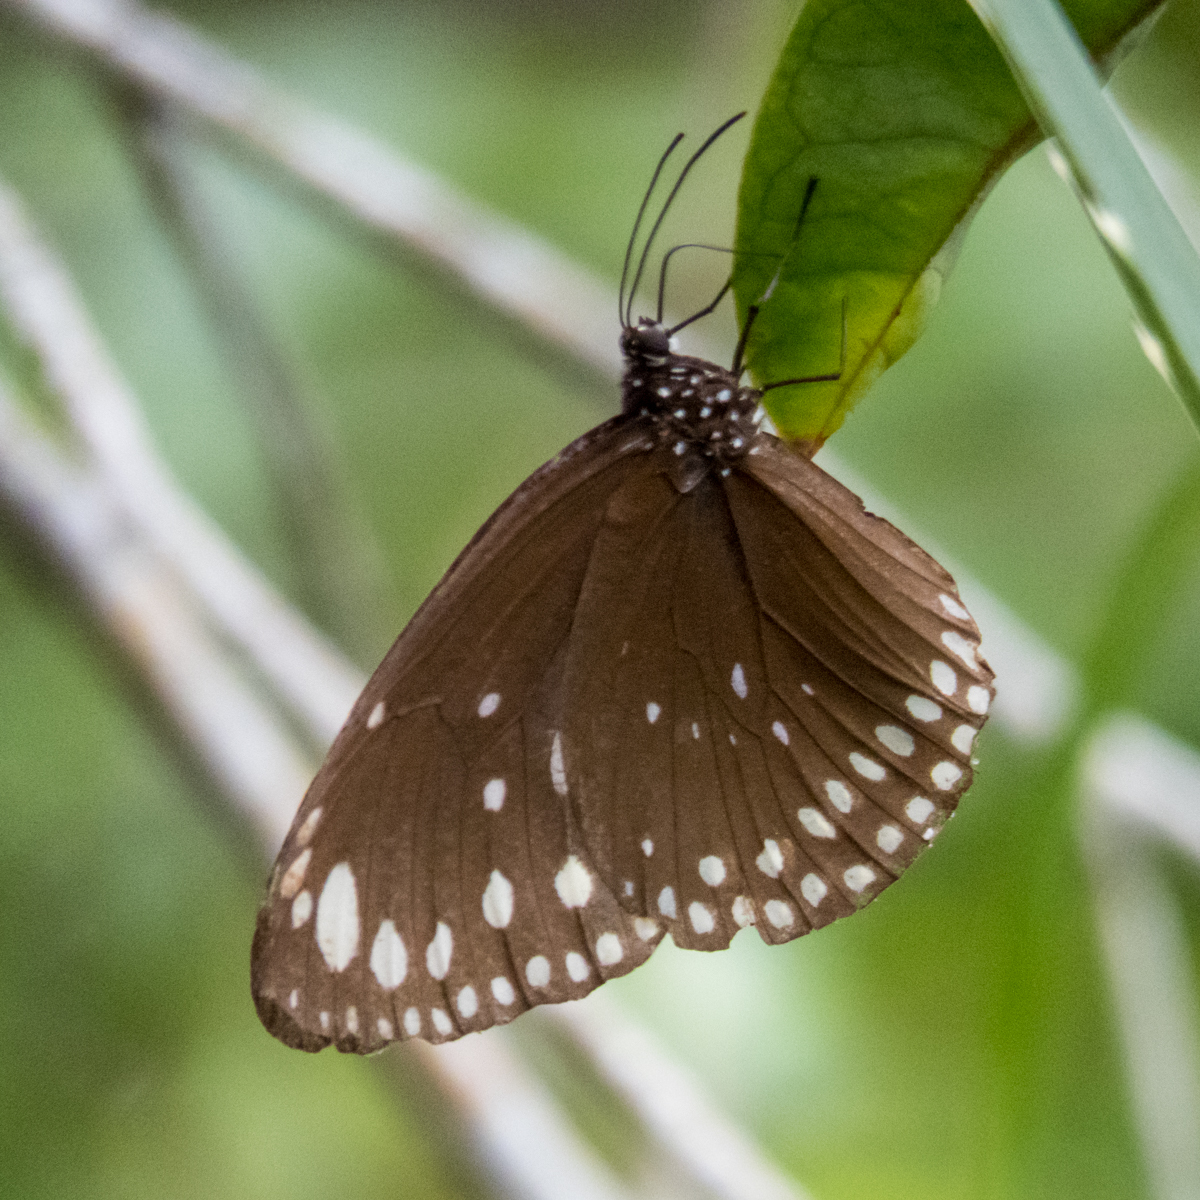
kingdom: Animalia
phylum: Arthropoda
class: Insecta
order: Lepidoptera
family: Nymphalidae
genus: Euploea
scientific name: Euploea crameri
